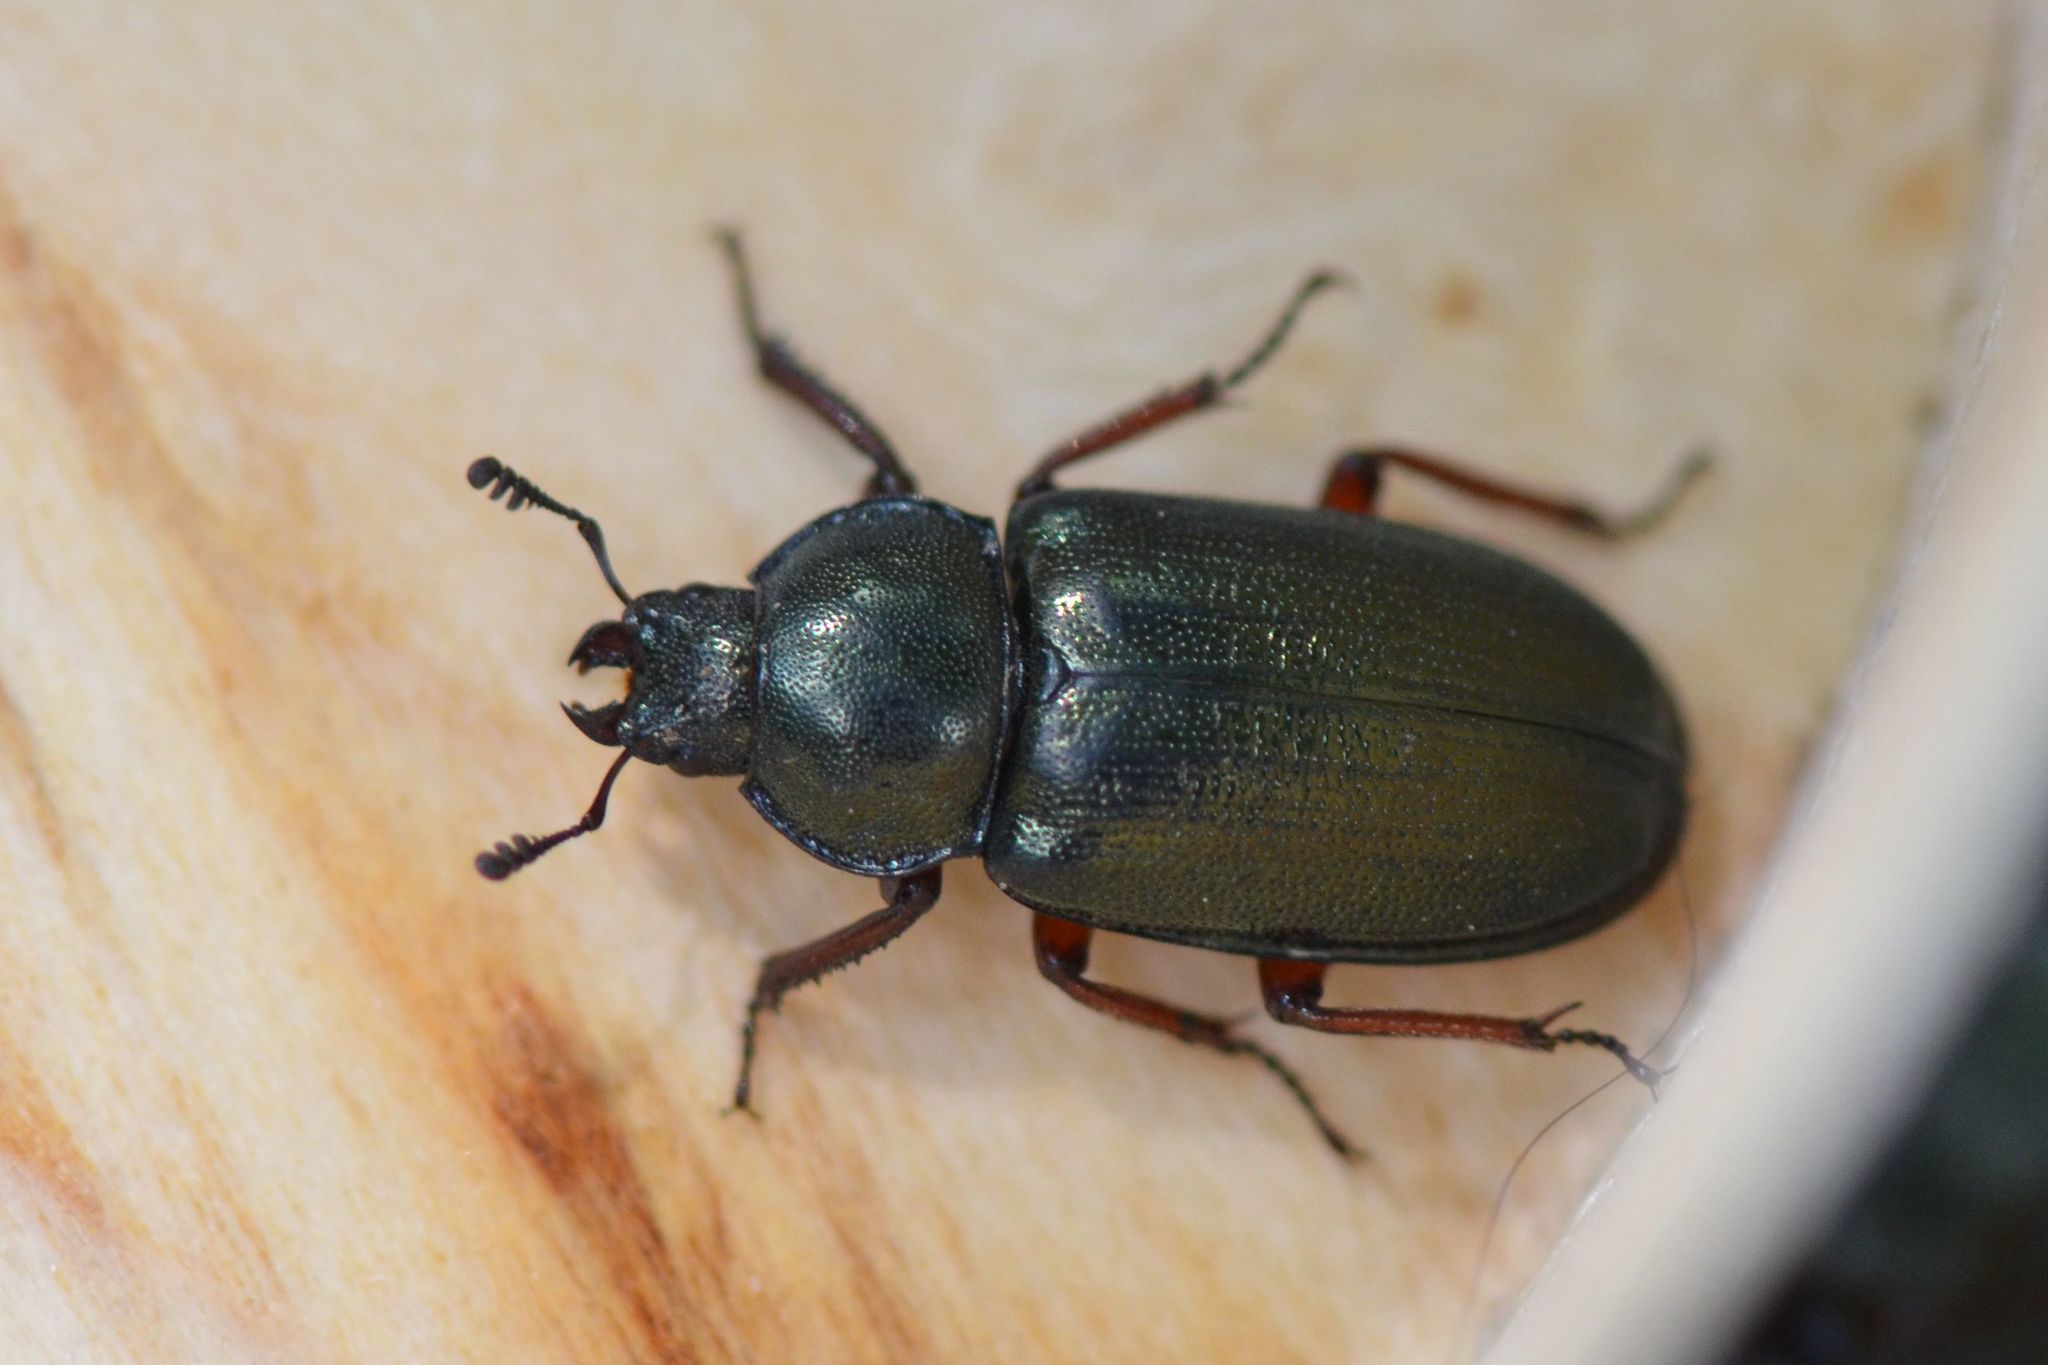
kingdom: Animalia
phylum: Arthropoda
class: Insecta
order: Coleoptera
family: Lucanidae
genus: Platycerus
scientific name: Platycerus caraboides
